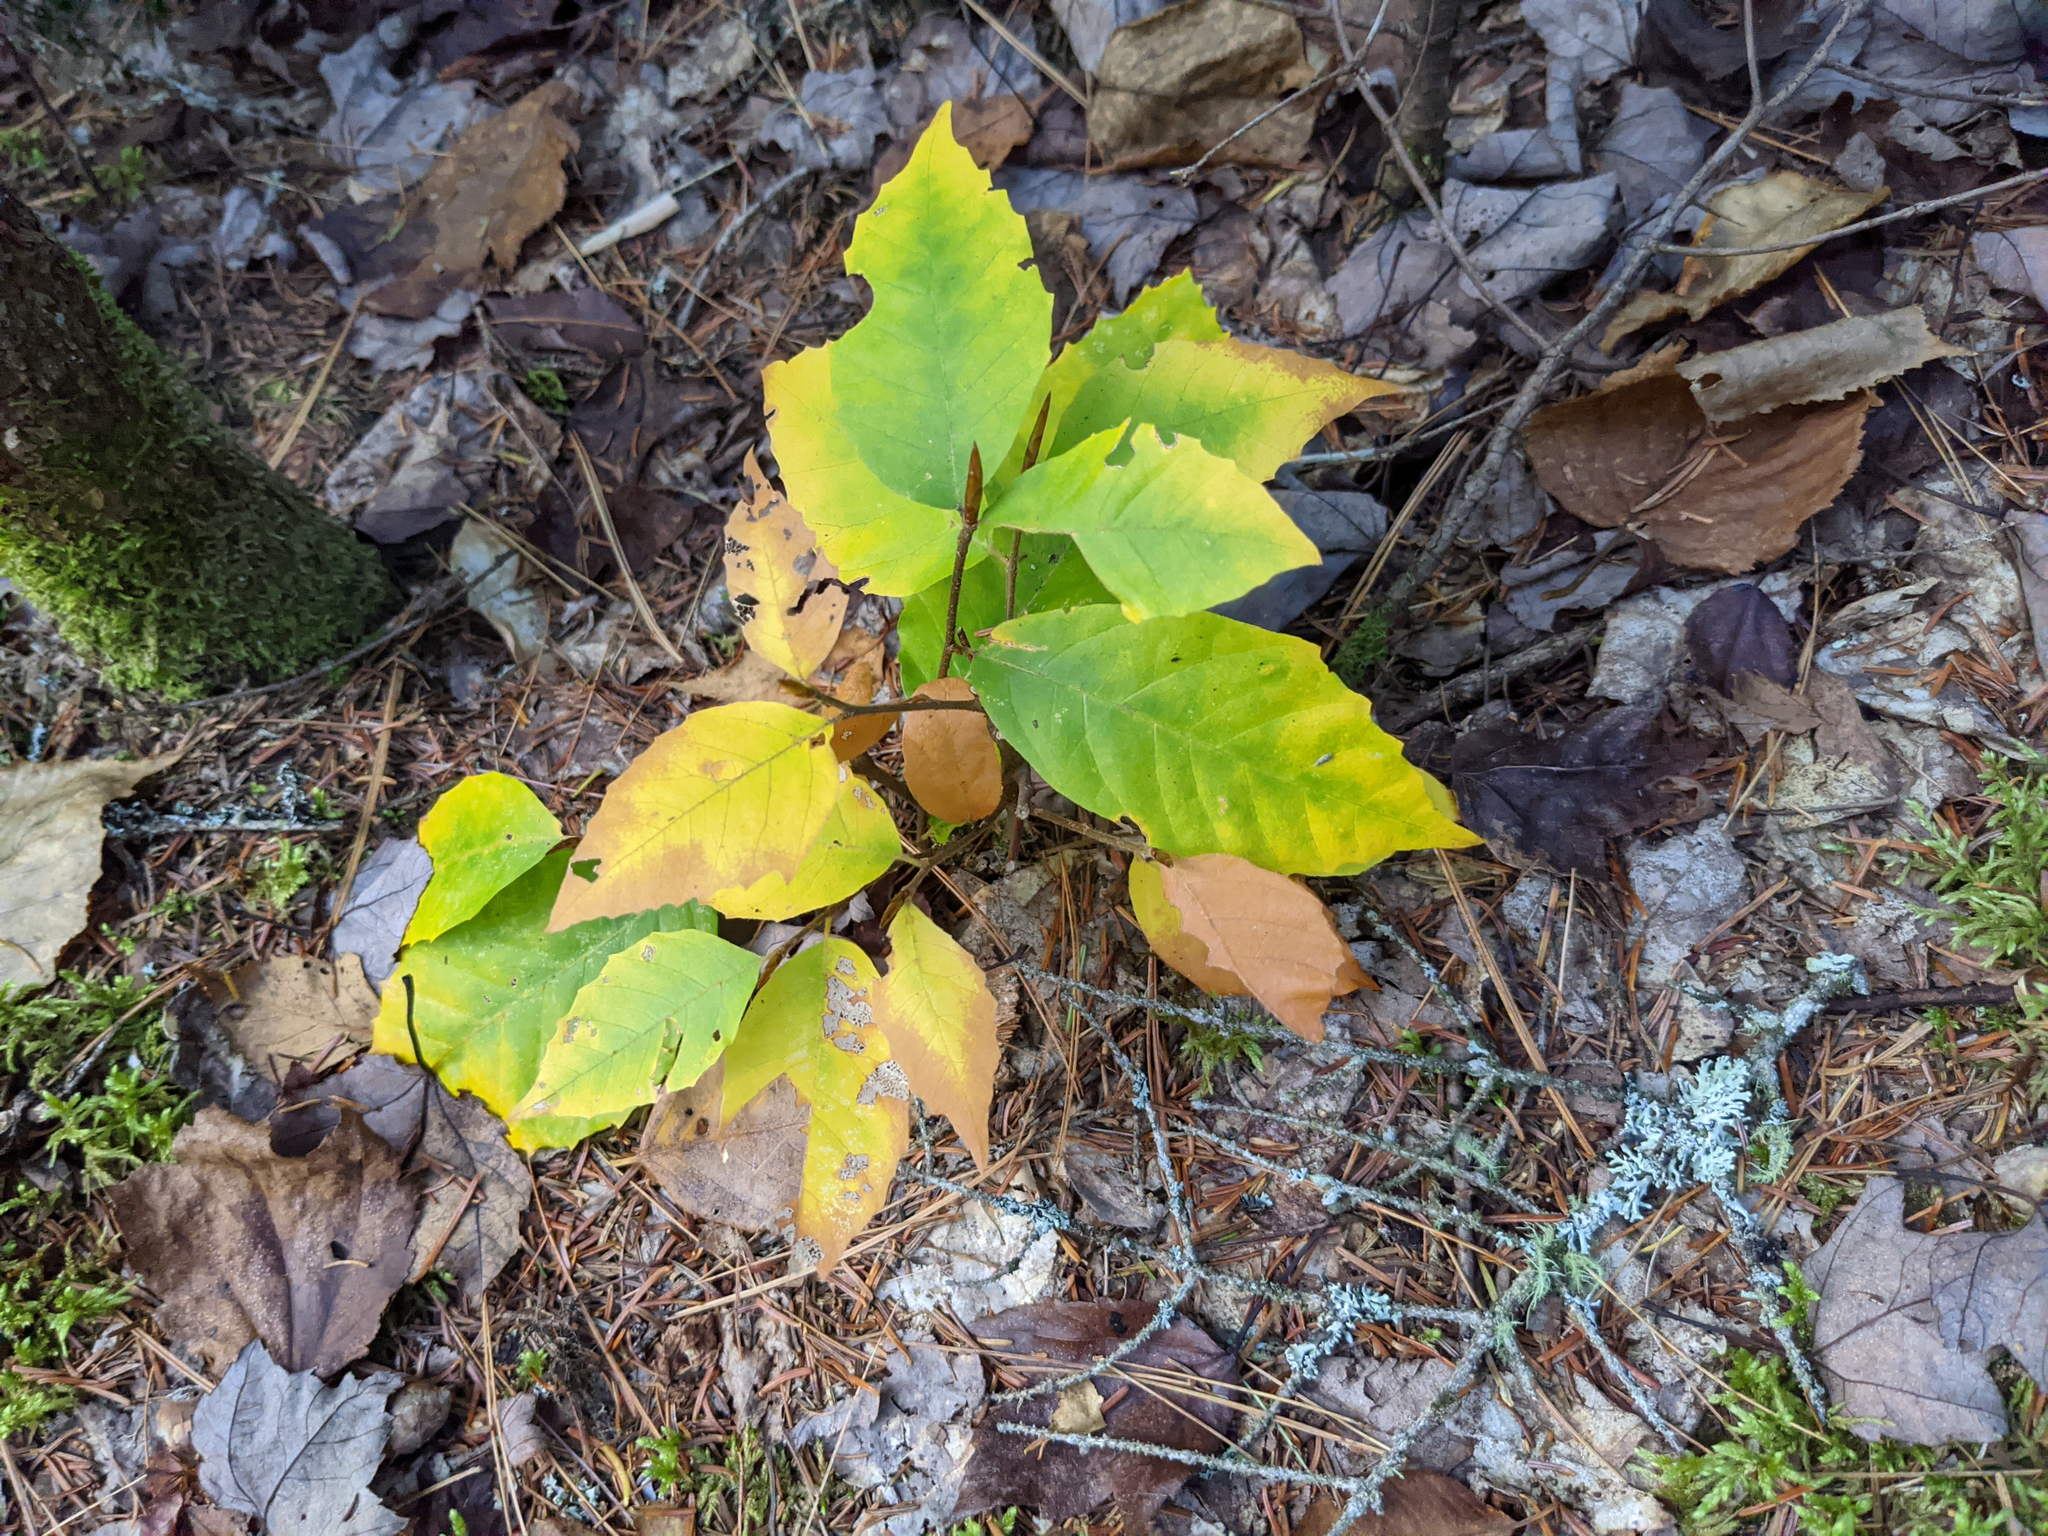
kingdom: Plantae
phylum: Tracheophyta
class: Magnoliopsida
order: Fagales
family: Fagaceae
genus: Fagus
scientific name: Fagus grandifolia
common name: American beech
